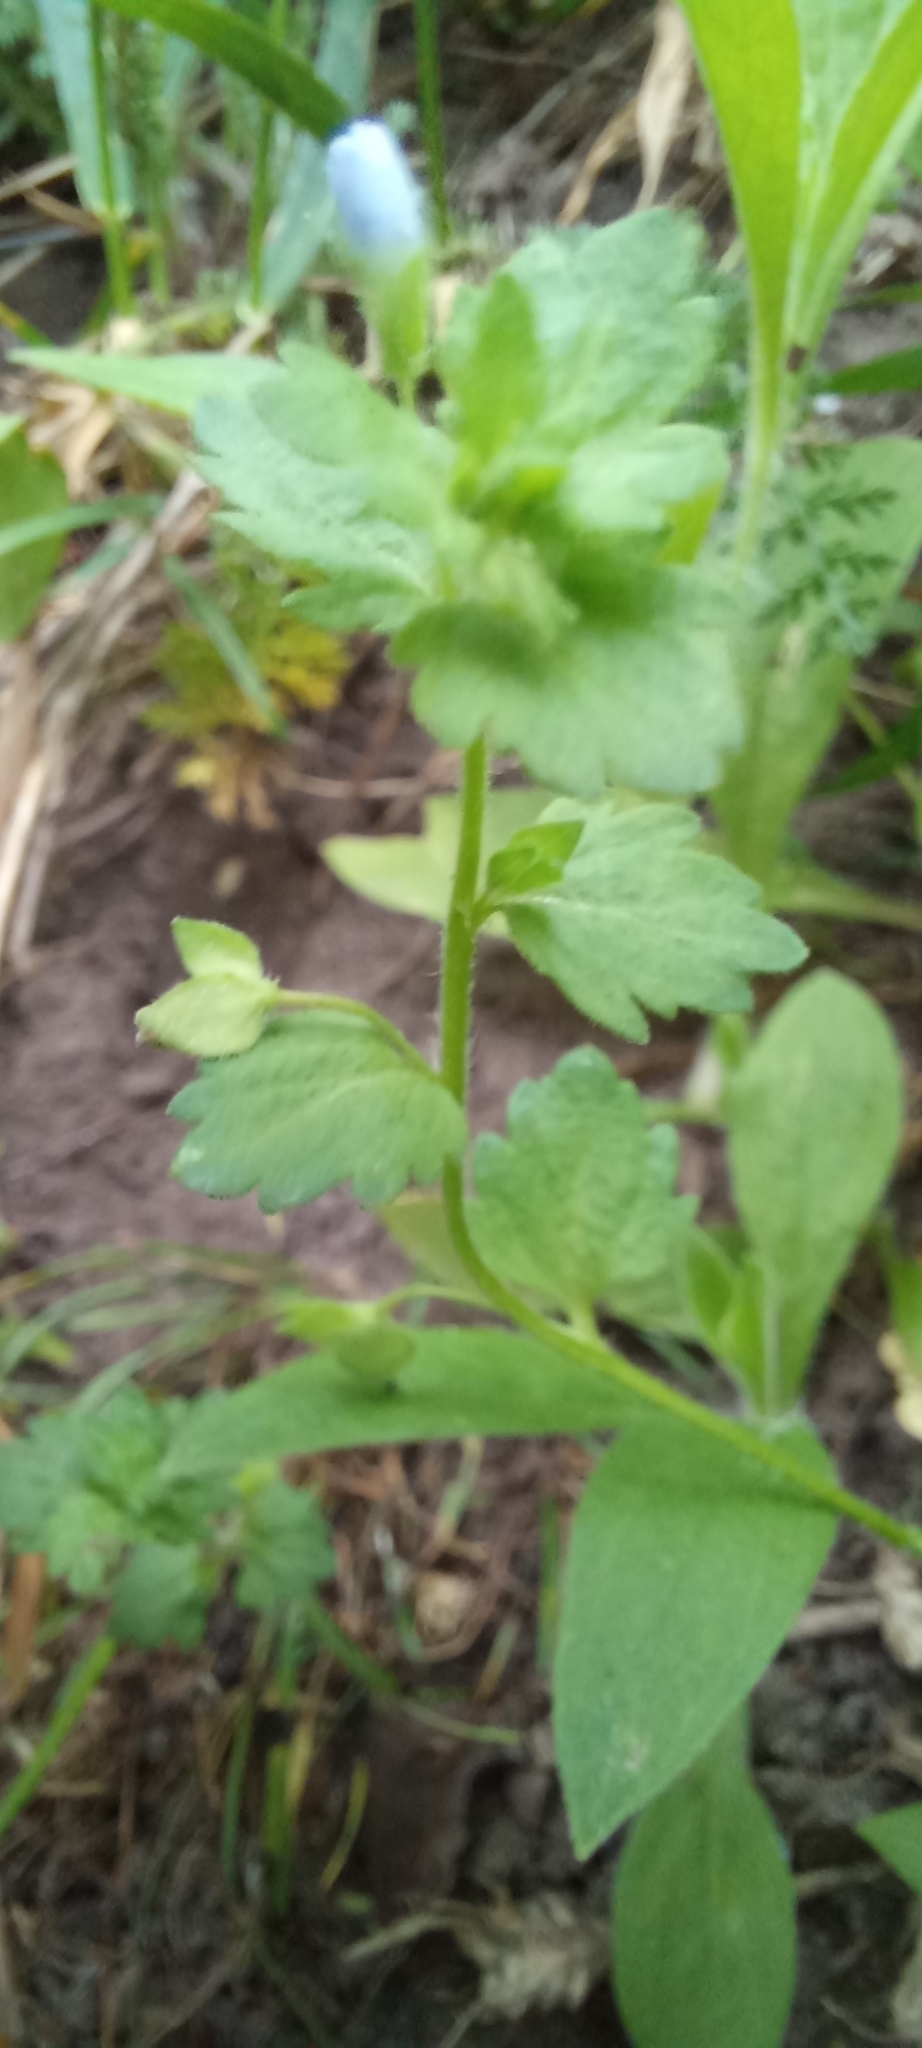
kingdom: Plantae
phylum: Tracheophyta
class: Magnoliopsida
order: Lamiales
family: Plantaginaceae
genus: Veronica
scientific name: Veronica persica
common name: Common field-speedwell
